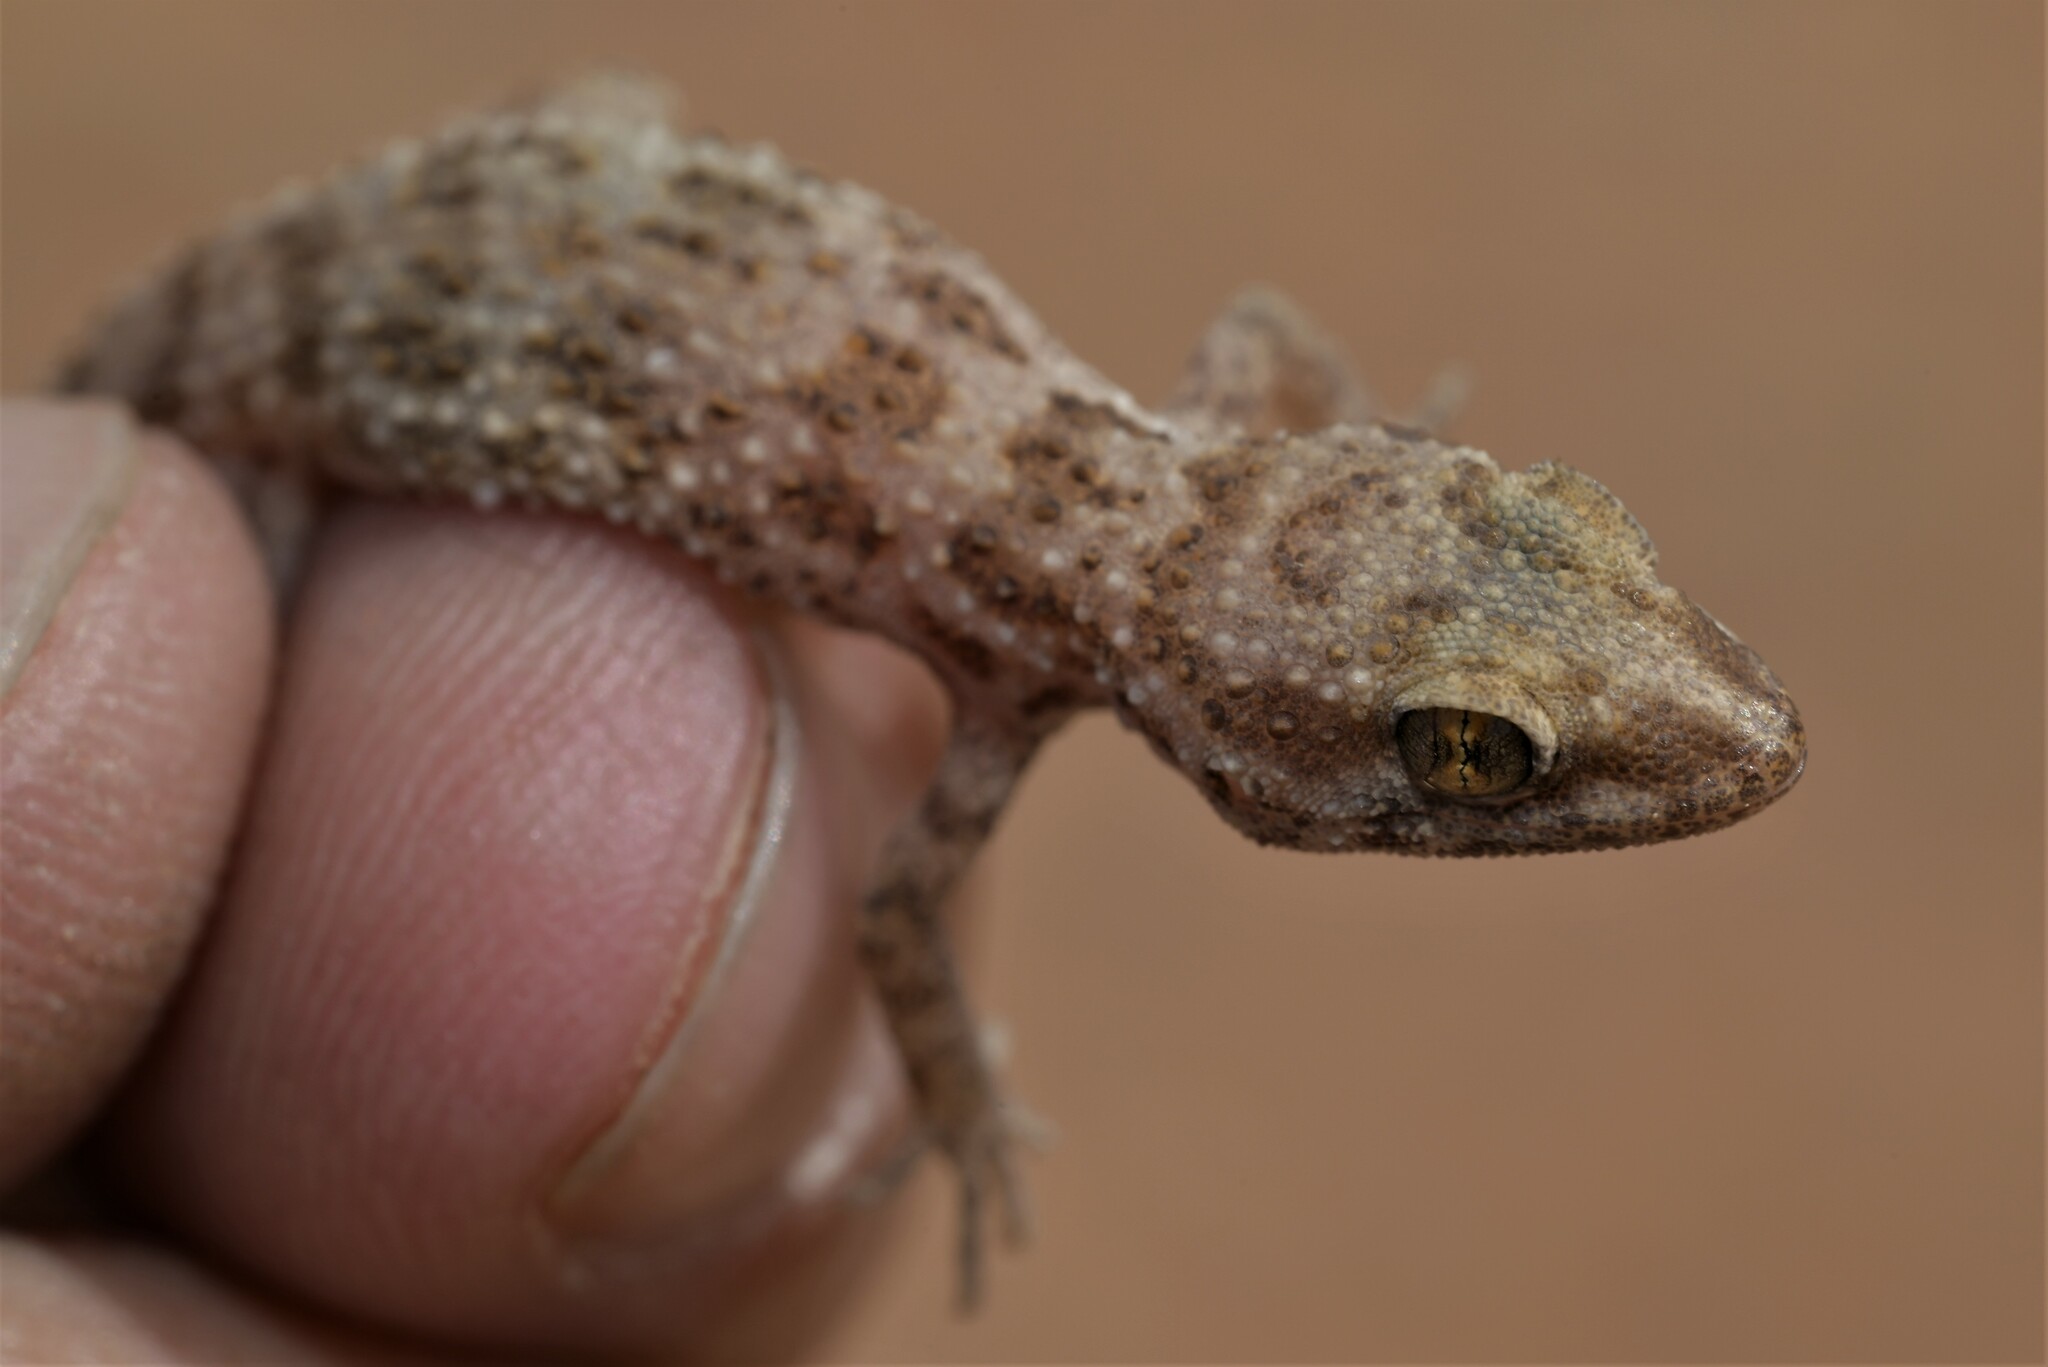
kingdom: Animalia
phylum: Chordata
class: Squamata
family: Gekkonidae
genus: Bunopus
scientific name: Bunopus tuberculatus
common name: Southern tuberculated gecko
